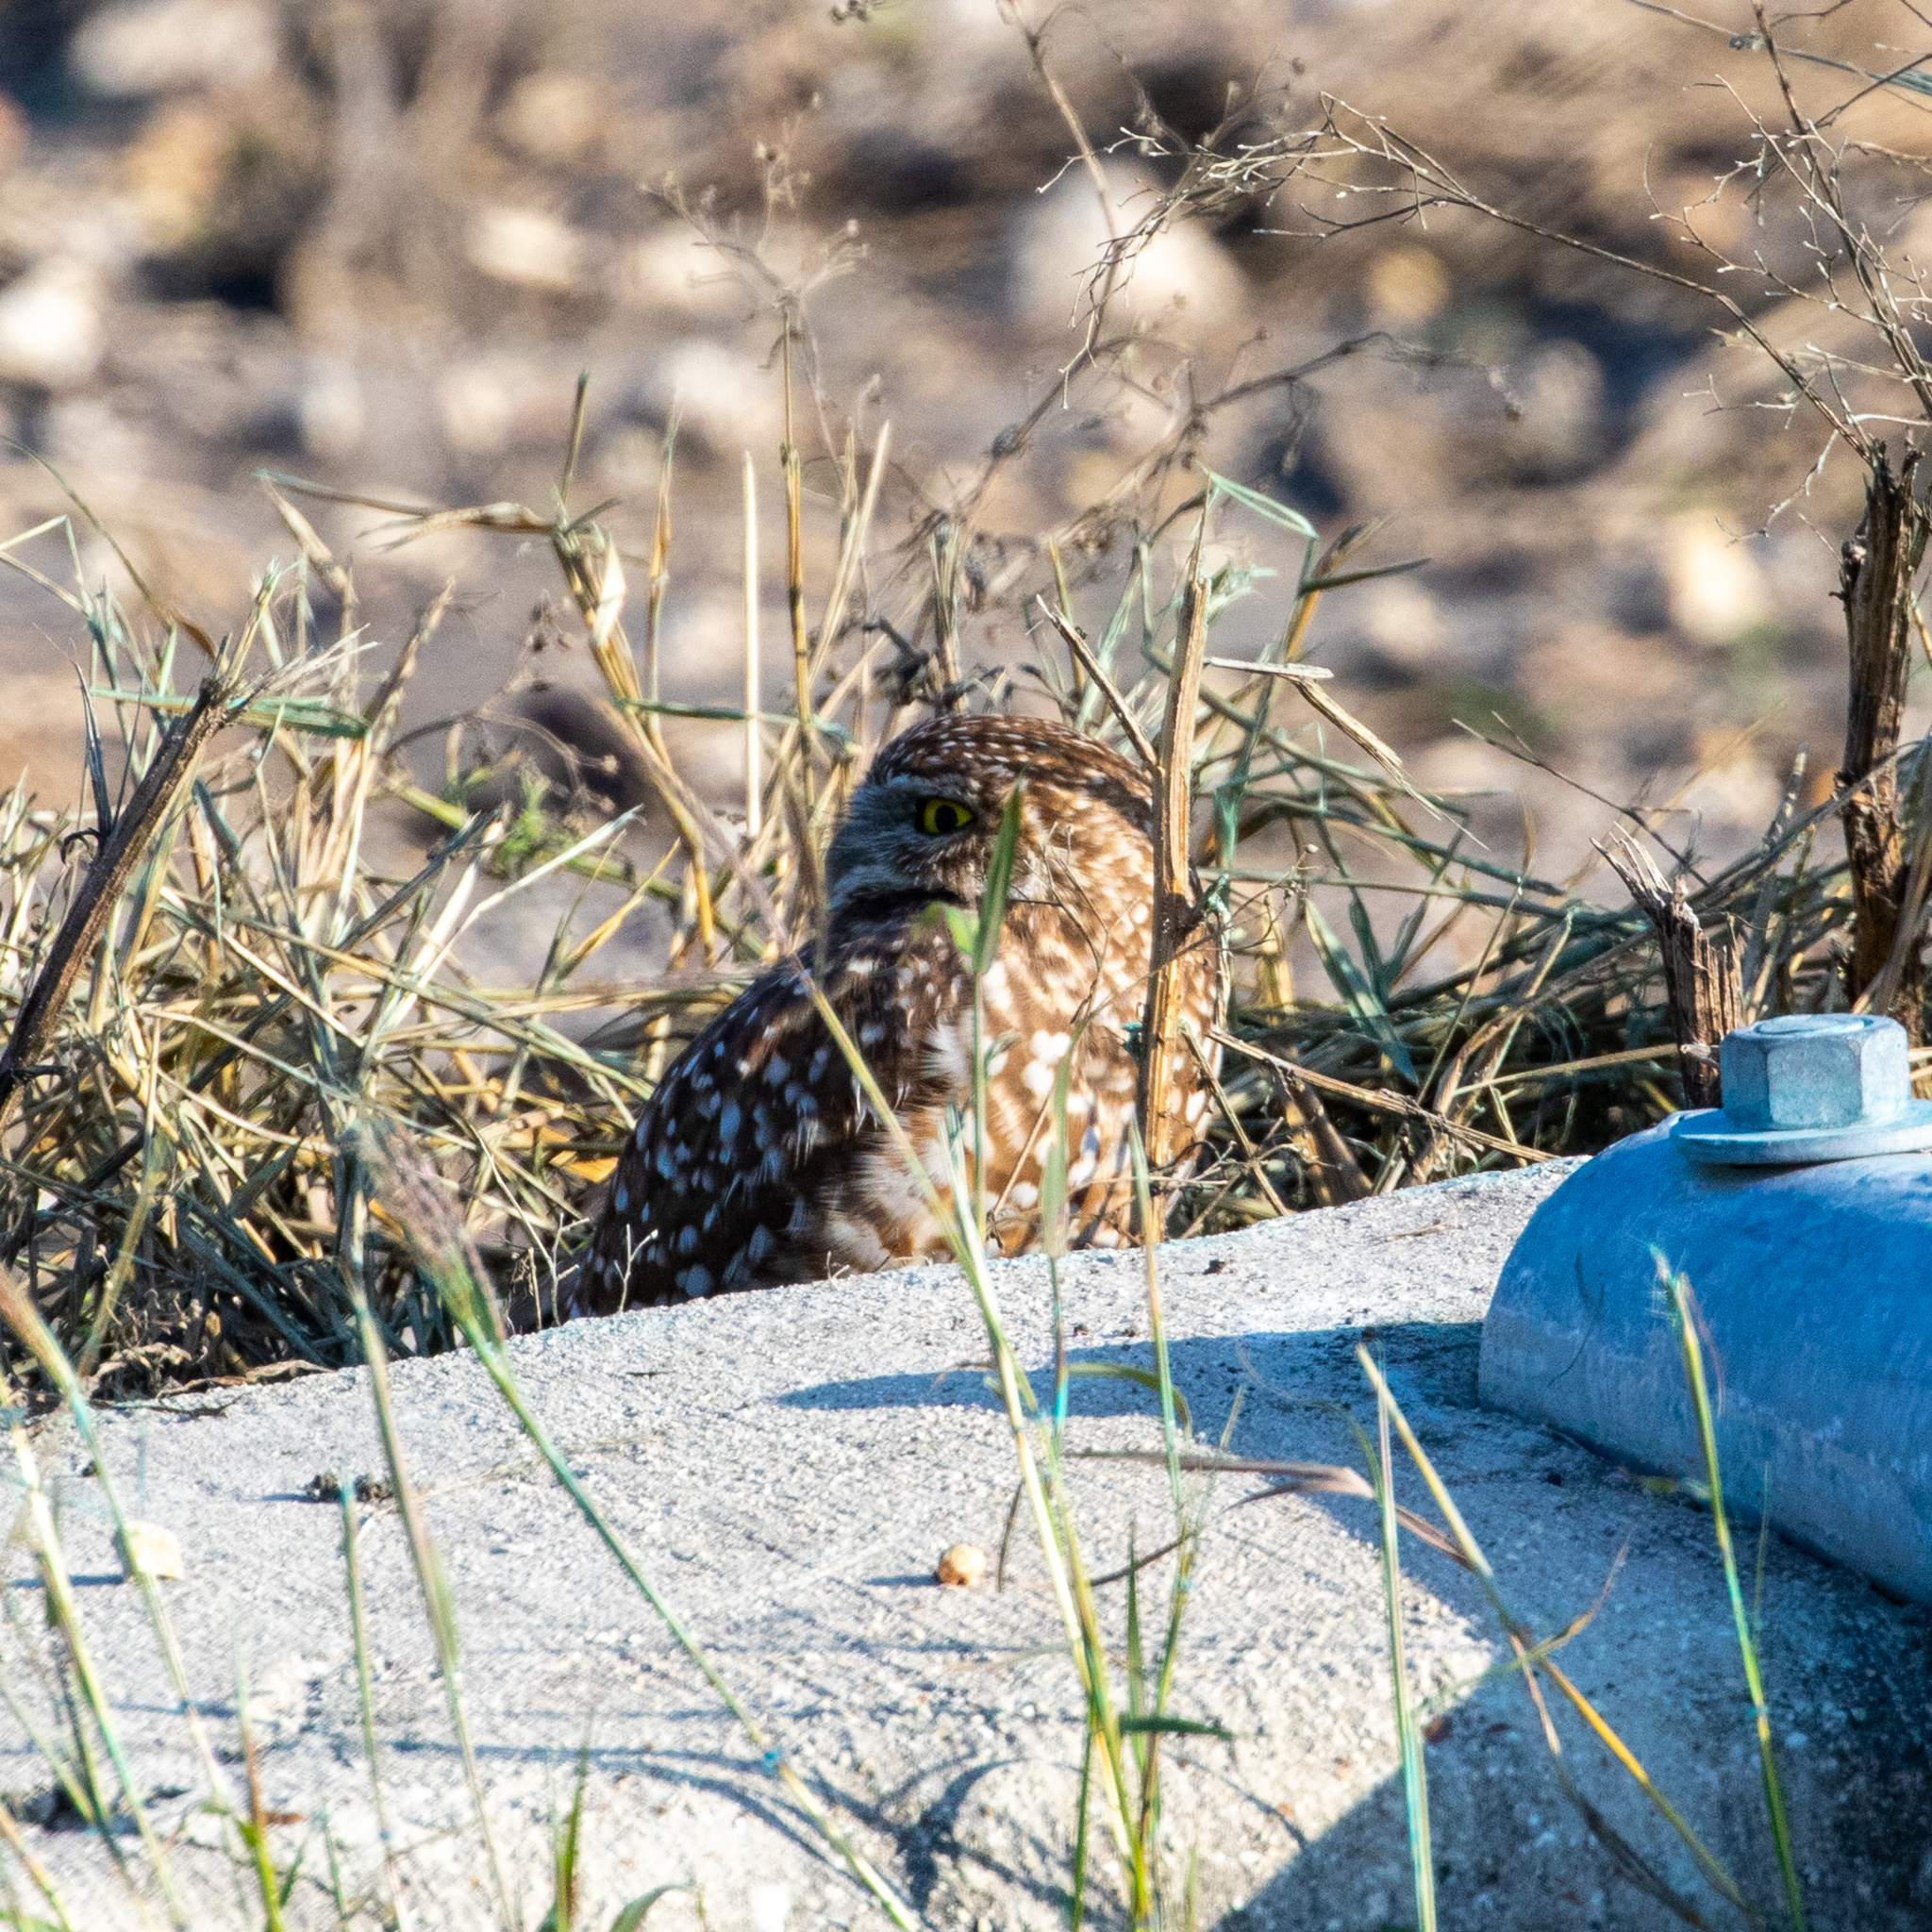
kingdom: Animalia
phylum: Chordata
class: Aves
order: Strigiformes
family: Strigidae
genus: Athene
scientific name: Athene cunicularia
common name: Burrowing owl
